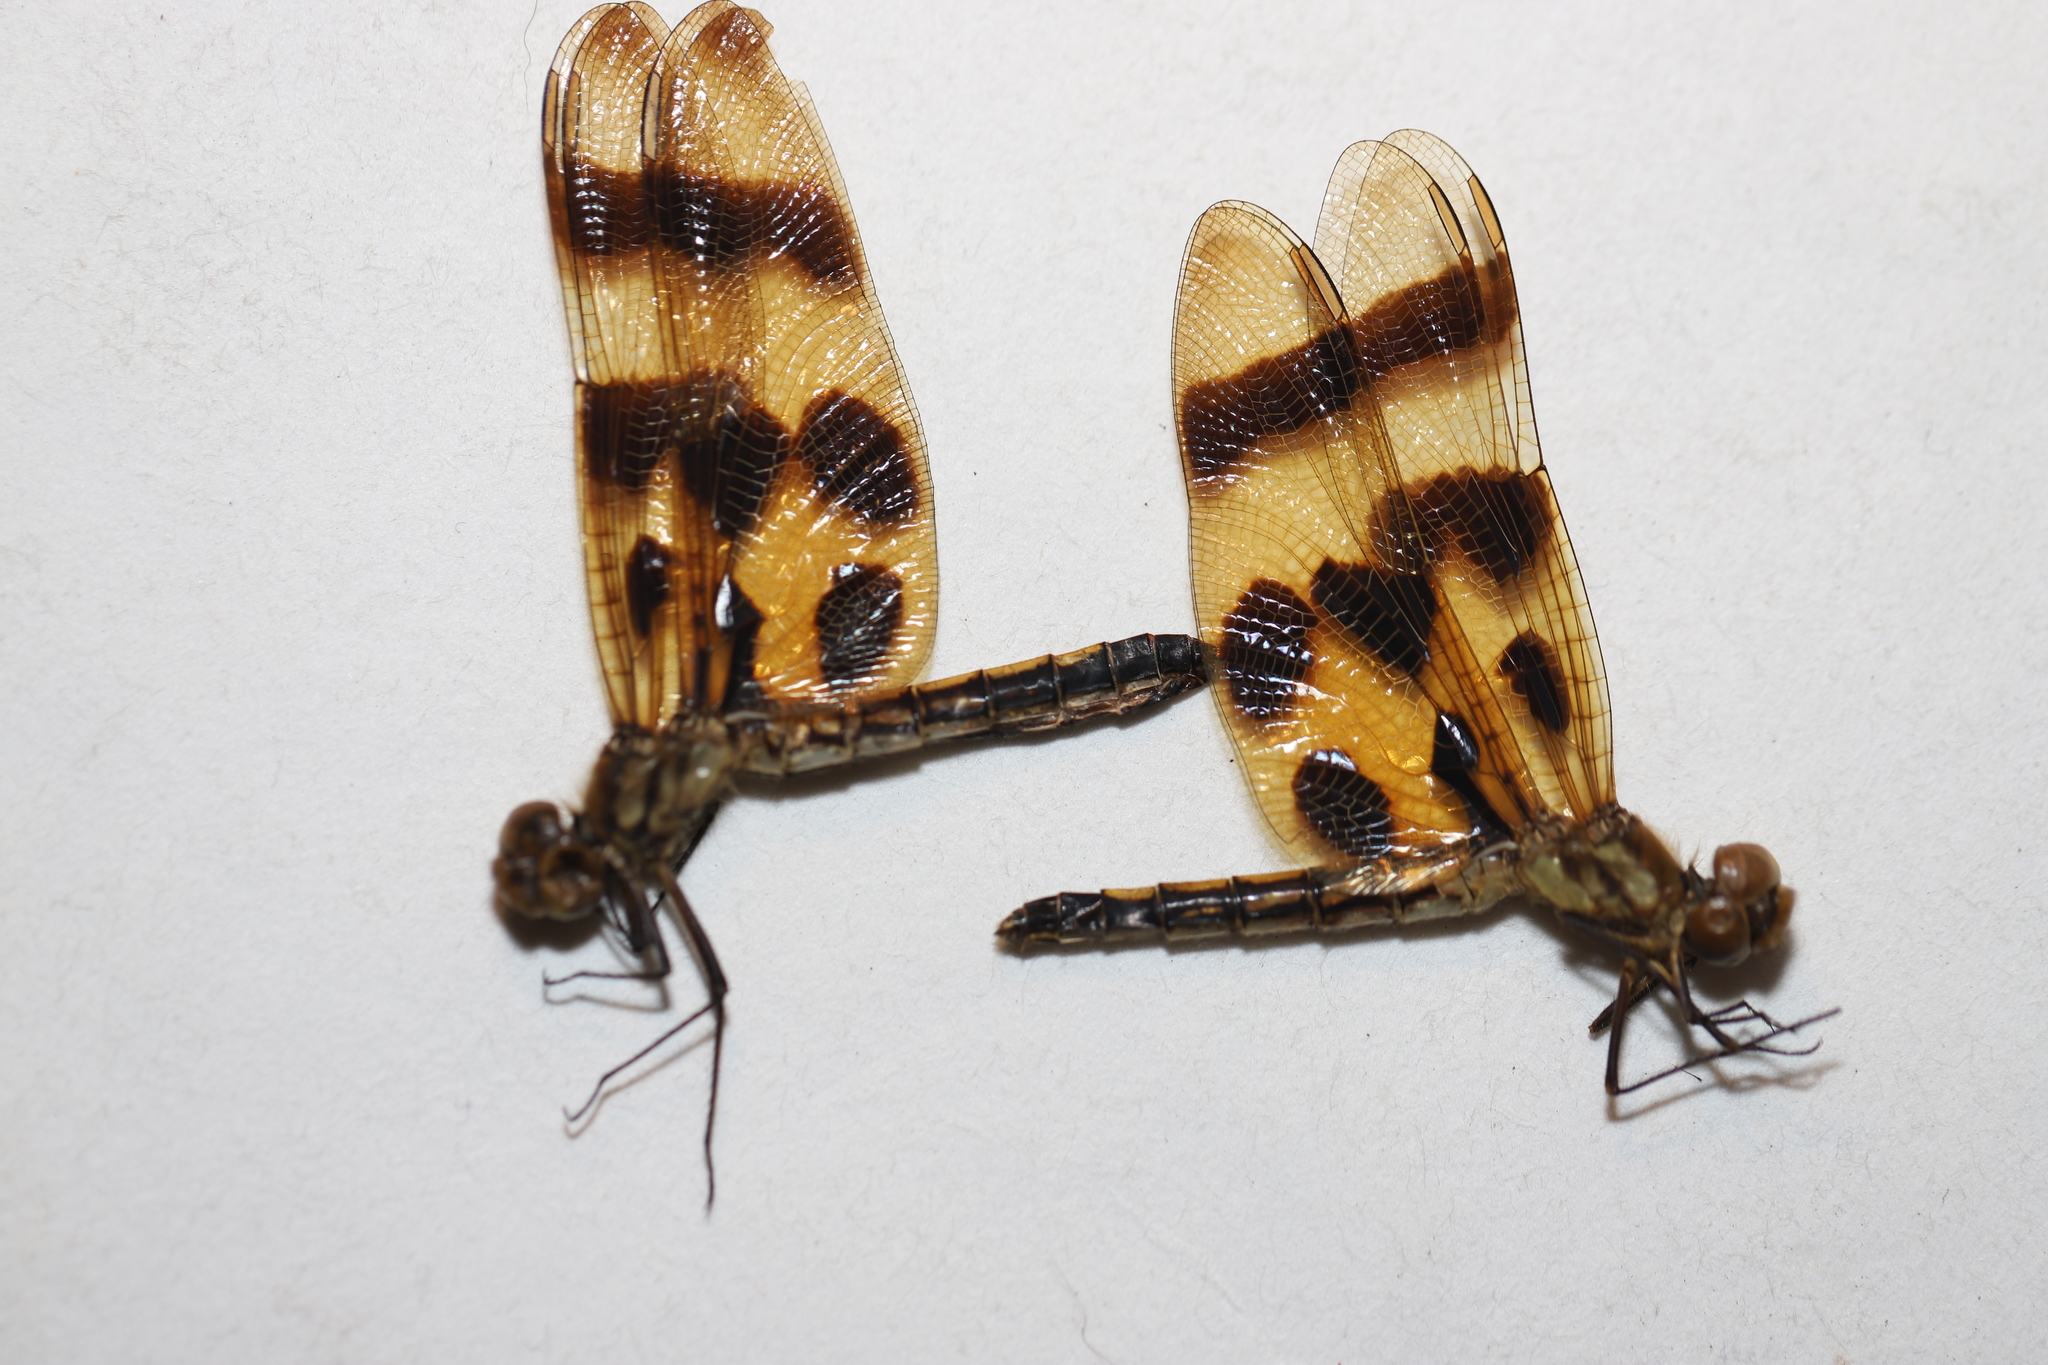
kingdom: Animalia
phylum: Arthropoda
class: Insecta
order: Odonata
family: Libellulidae
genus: Celithemis
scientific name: Celithemis eponina
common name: Halloween pennant
